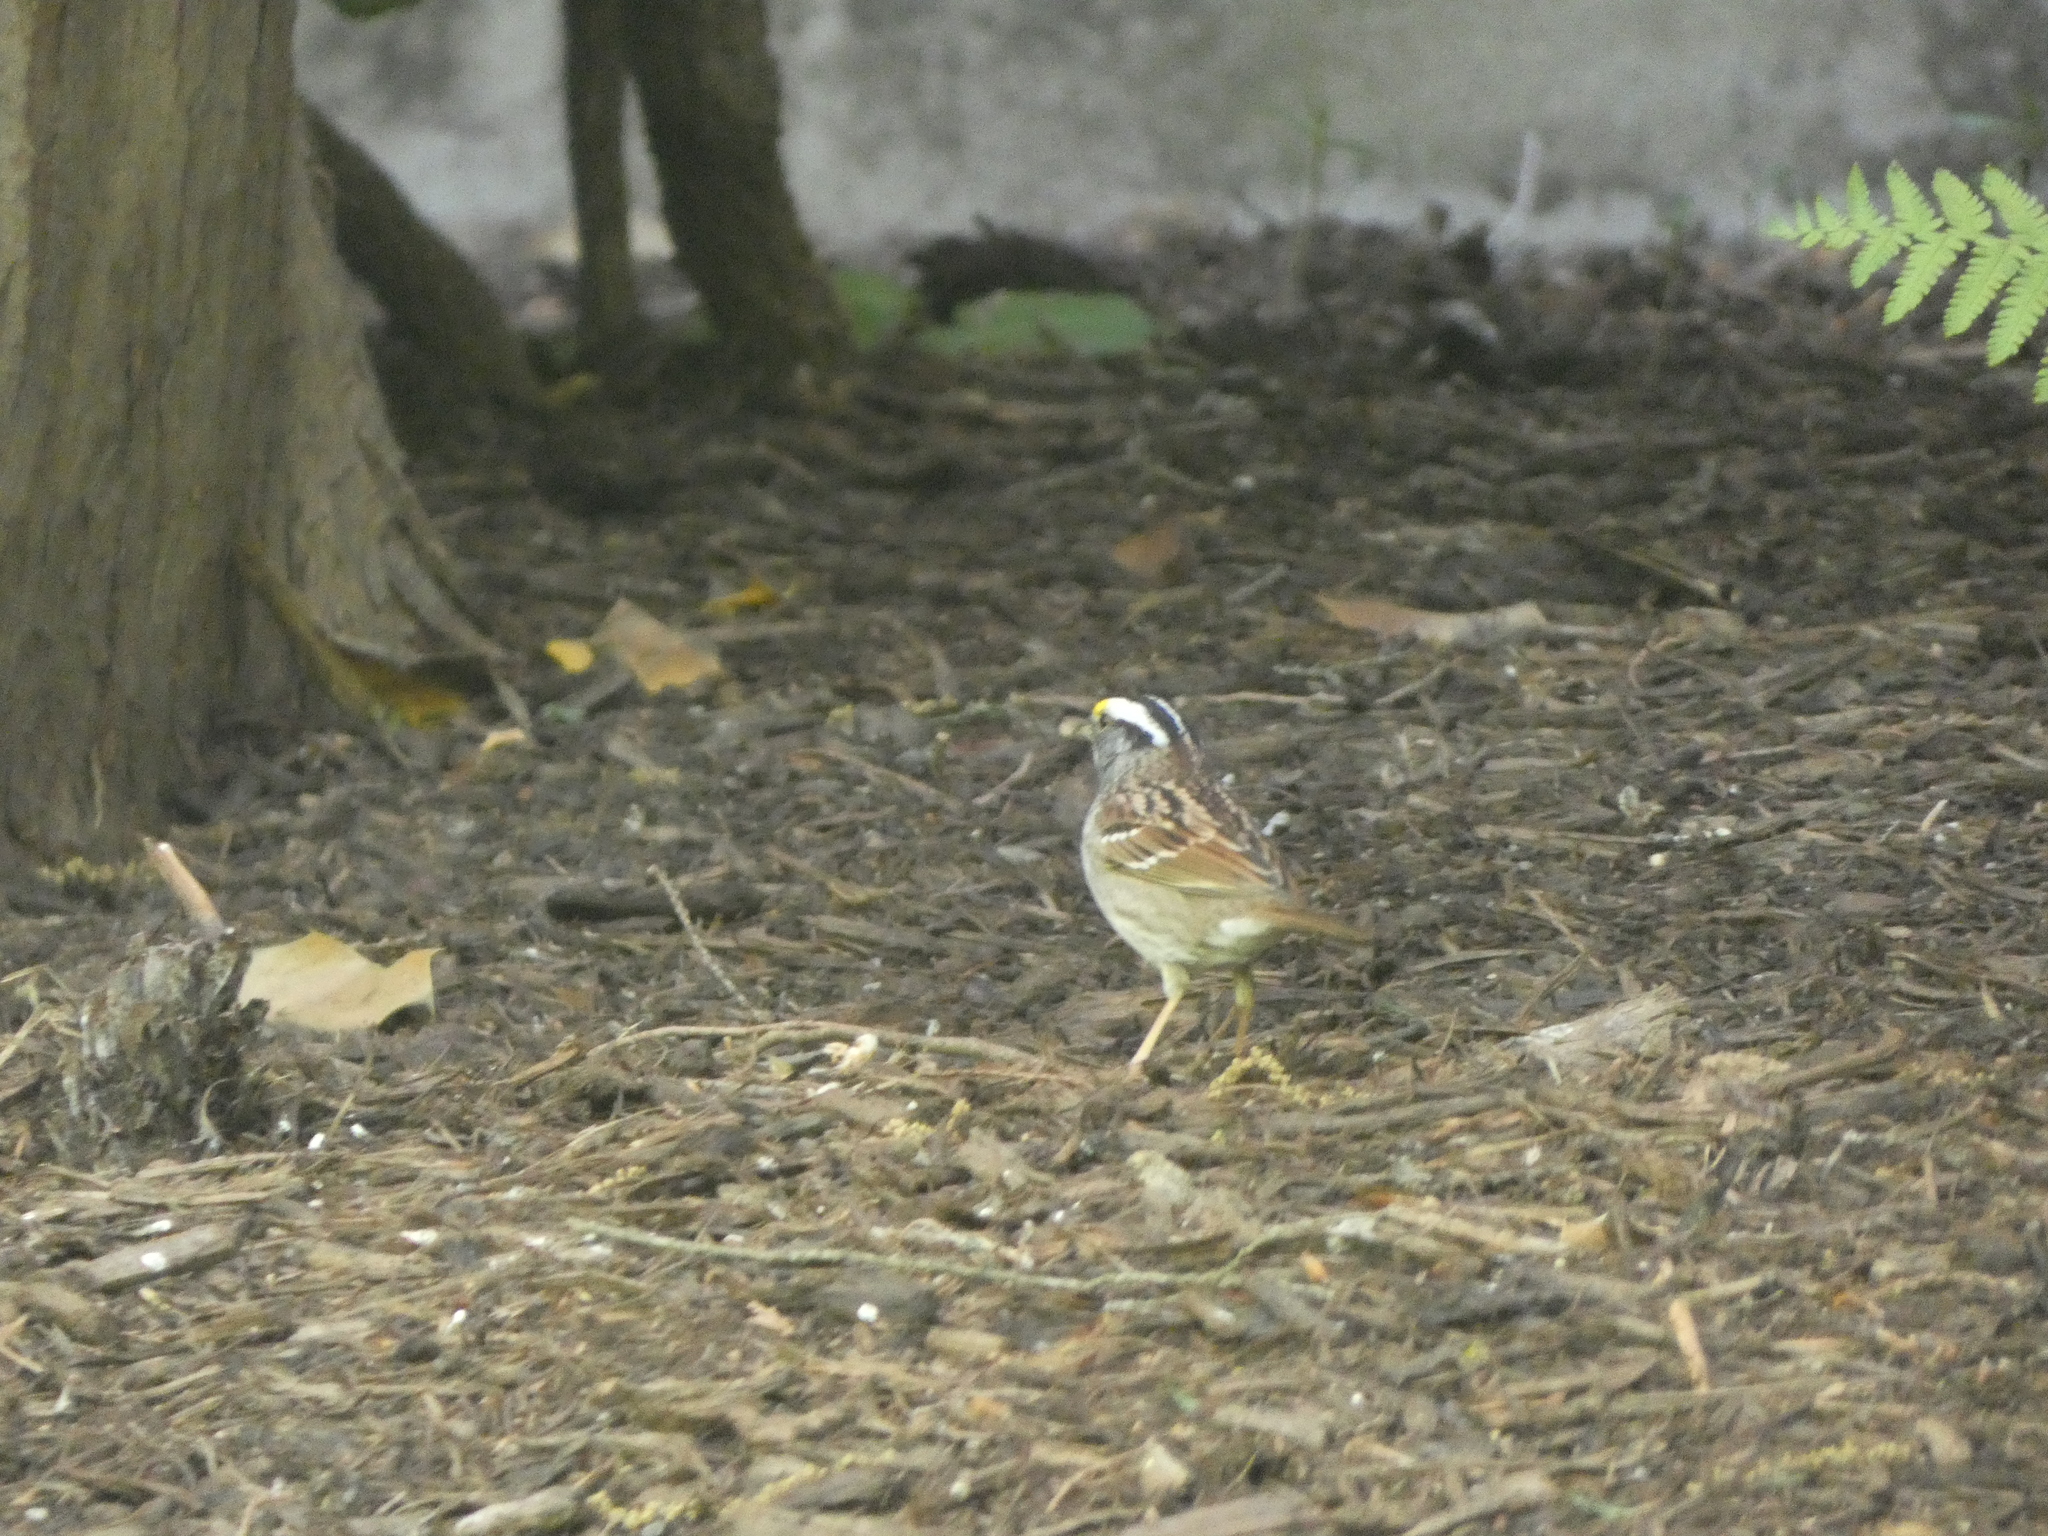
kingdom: Animalia
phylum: Chordata
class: Aves
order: Passeriformes
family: Passerellidae
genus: Zonotrichia
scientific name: Zonotrichia albicollis
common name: White-throated sparrow
